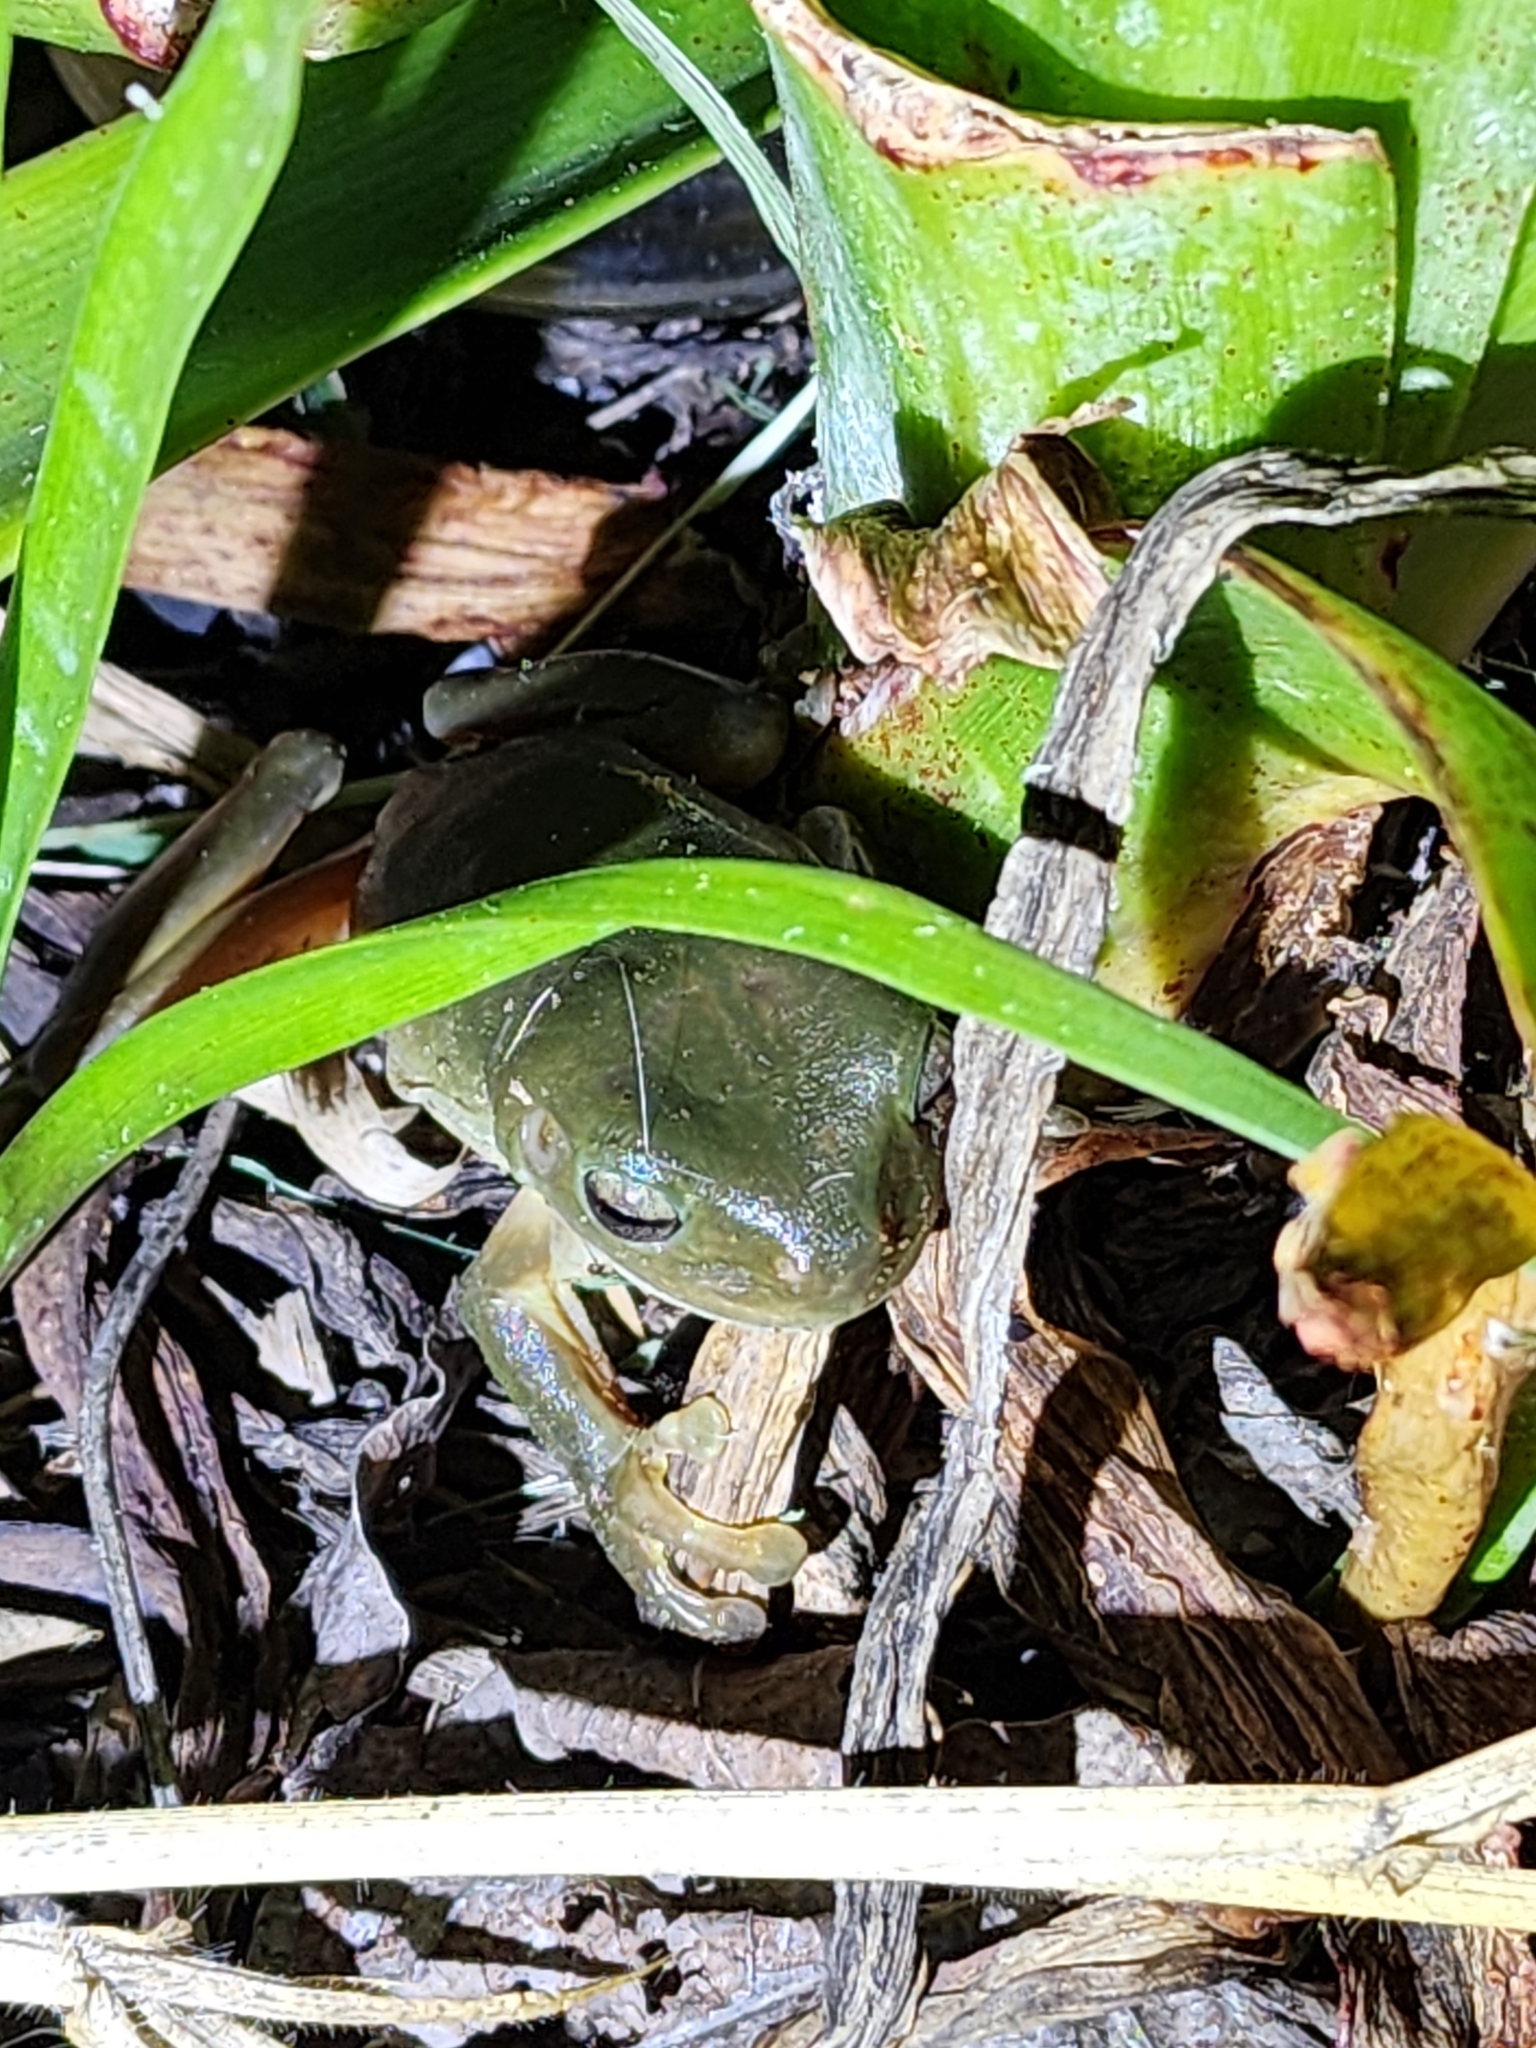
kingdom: Animalia
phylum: Chordata
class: Amphibia
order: Anura
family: Pelodryadidae
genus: Ranoidea
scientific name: Ranoidea caerulea
